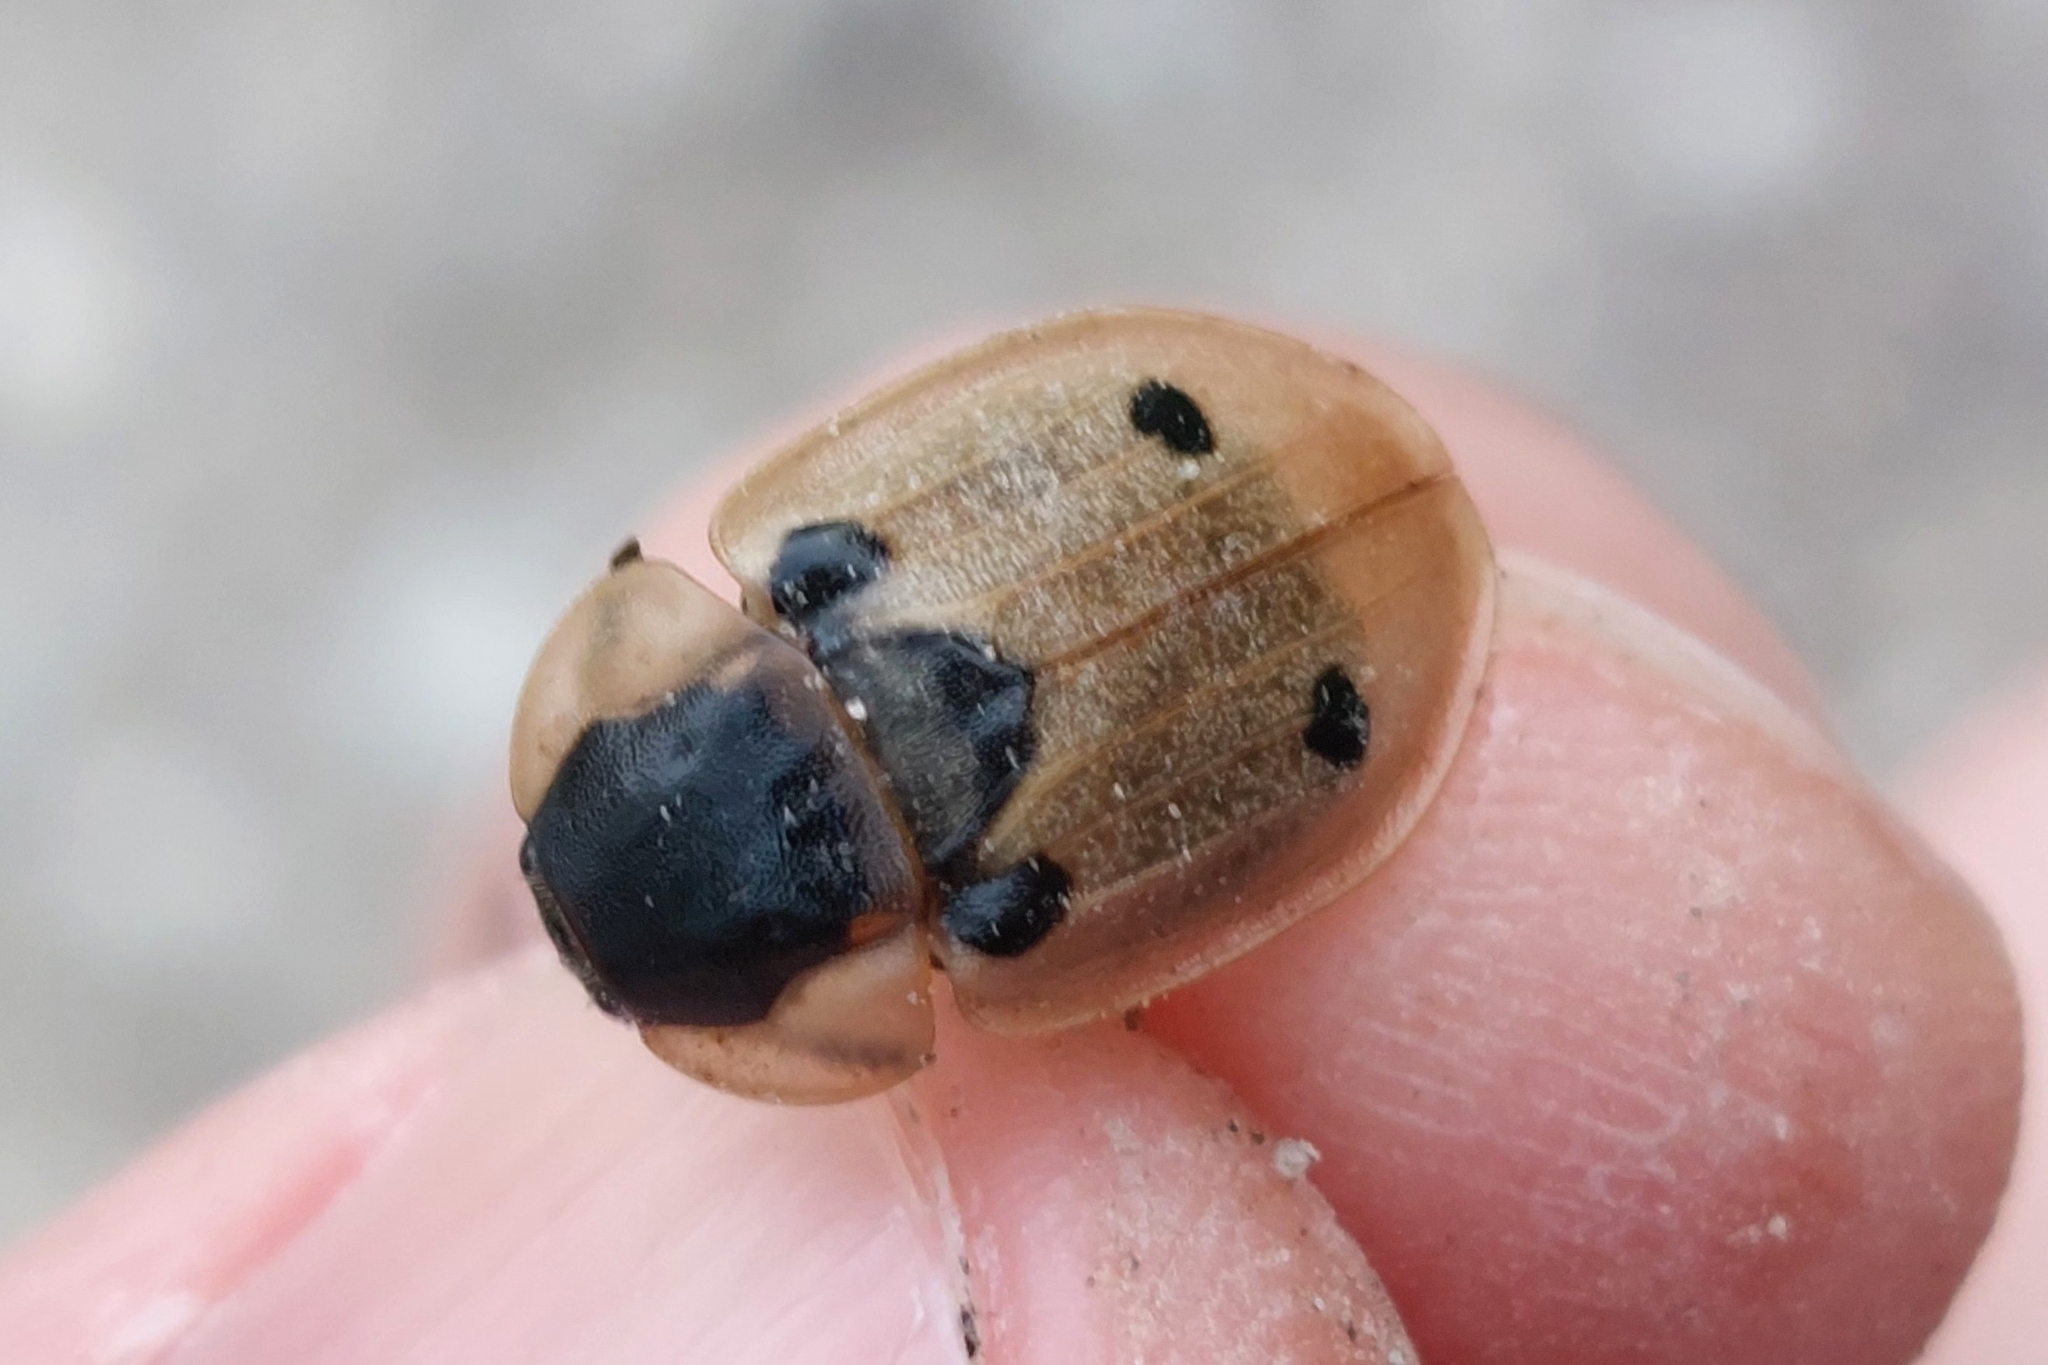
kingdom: Animalia
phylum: Arthropoda
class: Insecta
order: Coleoptera
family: Staphylinidae
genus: Dendroxena
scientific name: Dendroxena quadrimaculata
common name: Carrion beetle
